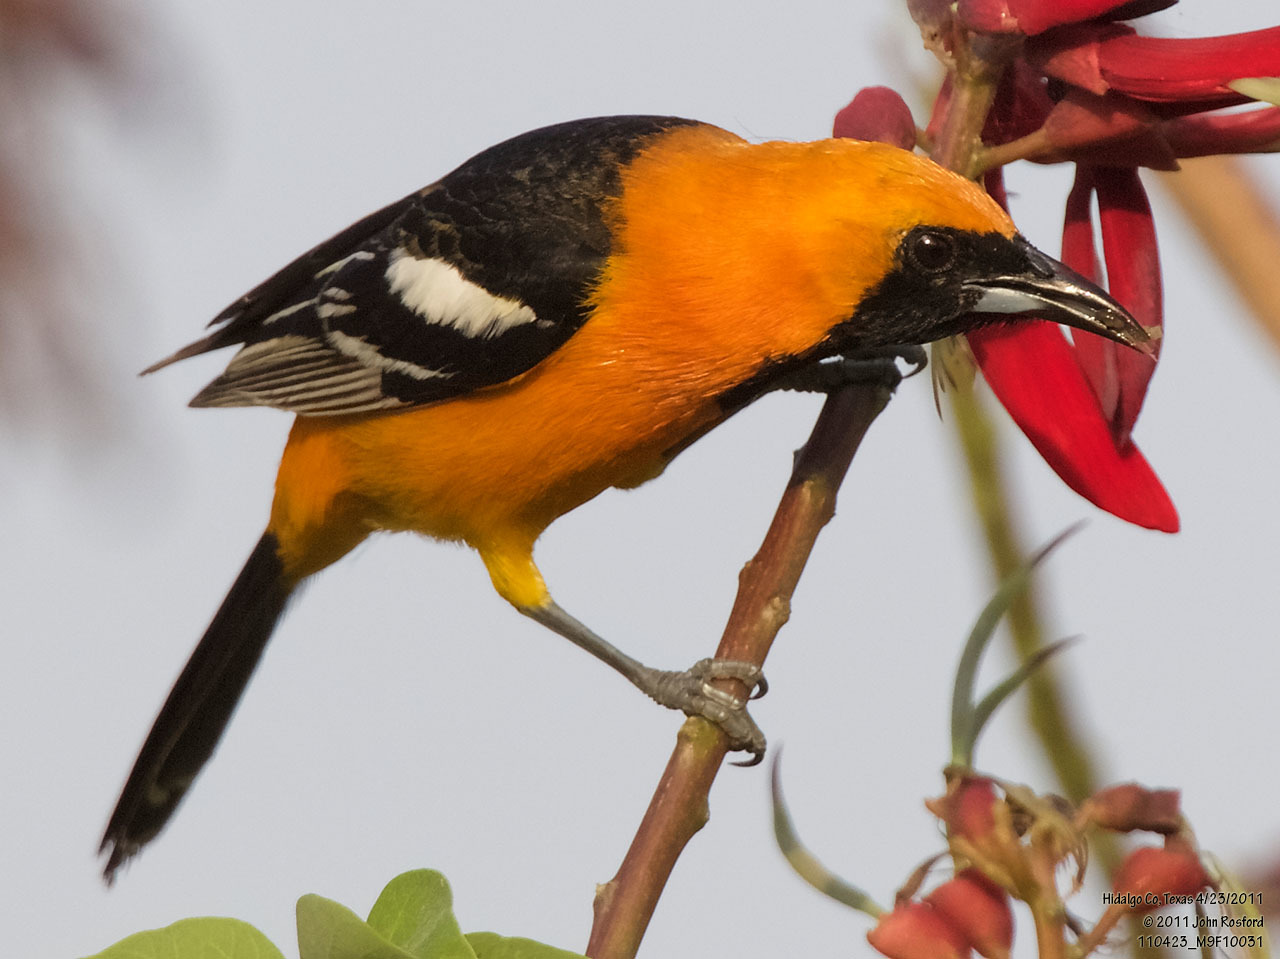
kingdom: Animalia
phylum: Chordata
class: Aves
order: Passeriformes
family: Icteridae
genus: Icterus
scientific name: Icterus cucullatus
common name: Hooded oriole
